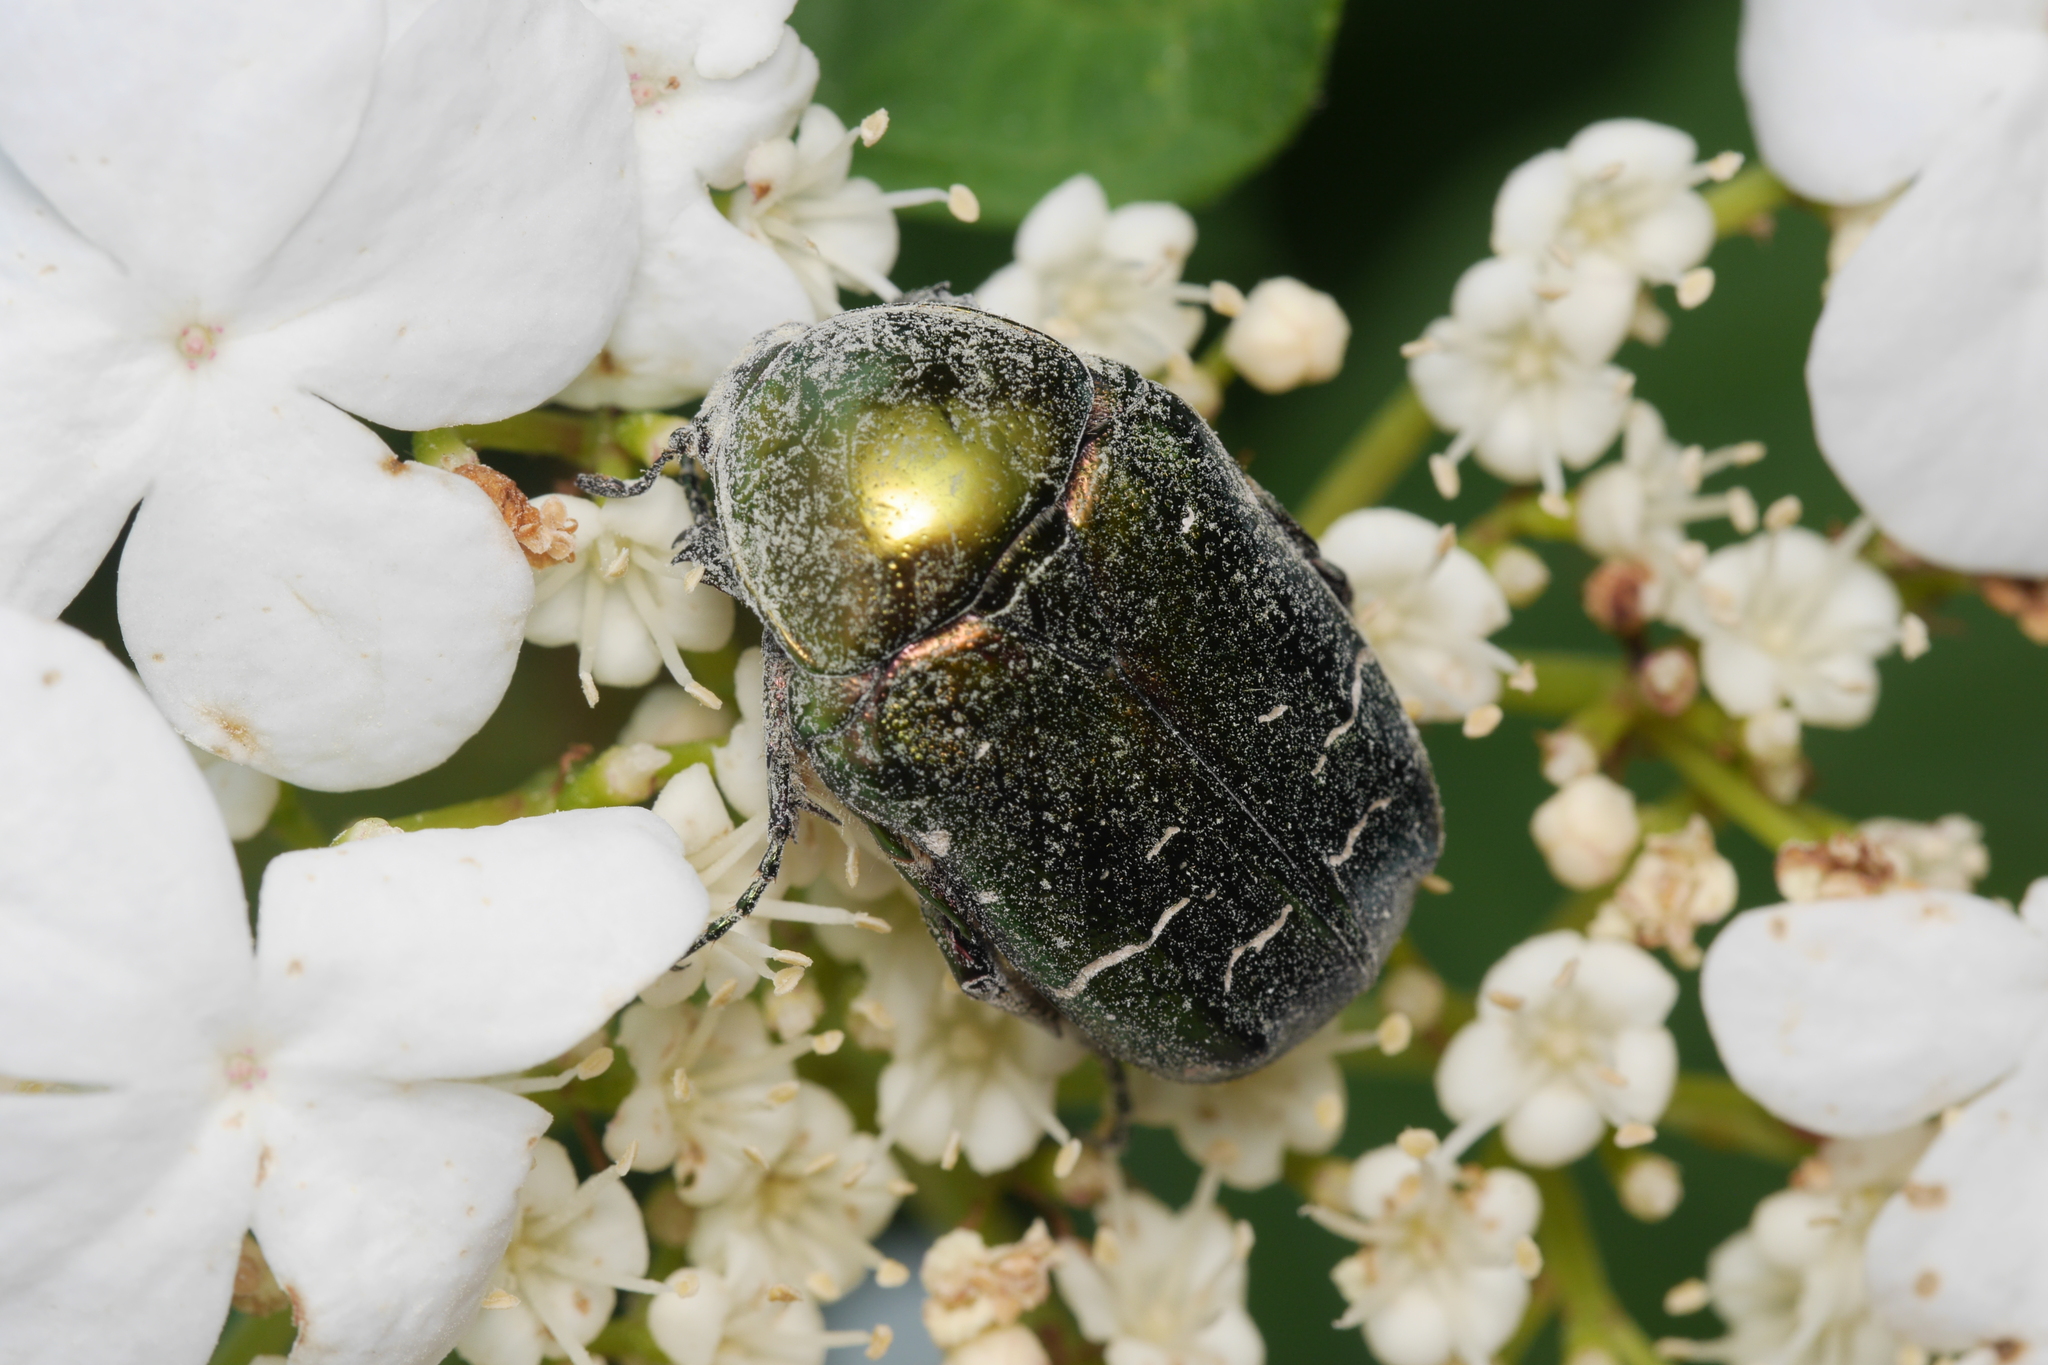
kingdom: Animalia
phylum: Arthropoda
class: Insecta
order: Coleoptera
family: Scarabaeidae
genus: Cetonia
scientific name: Cetonia aurata
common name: Rose chafer
